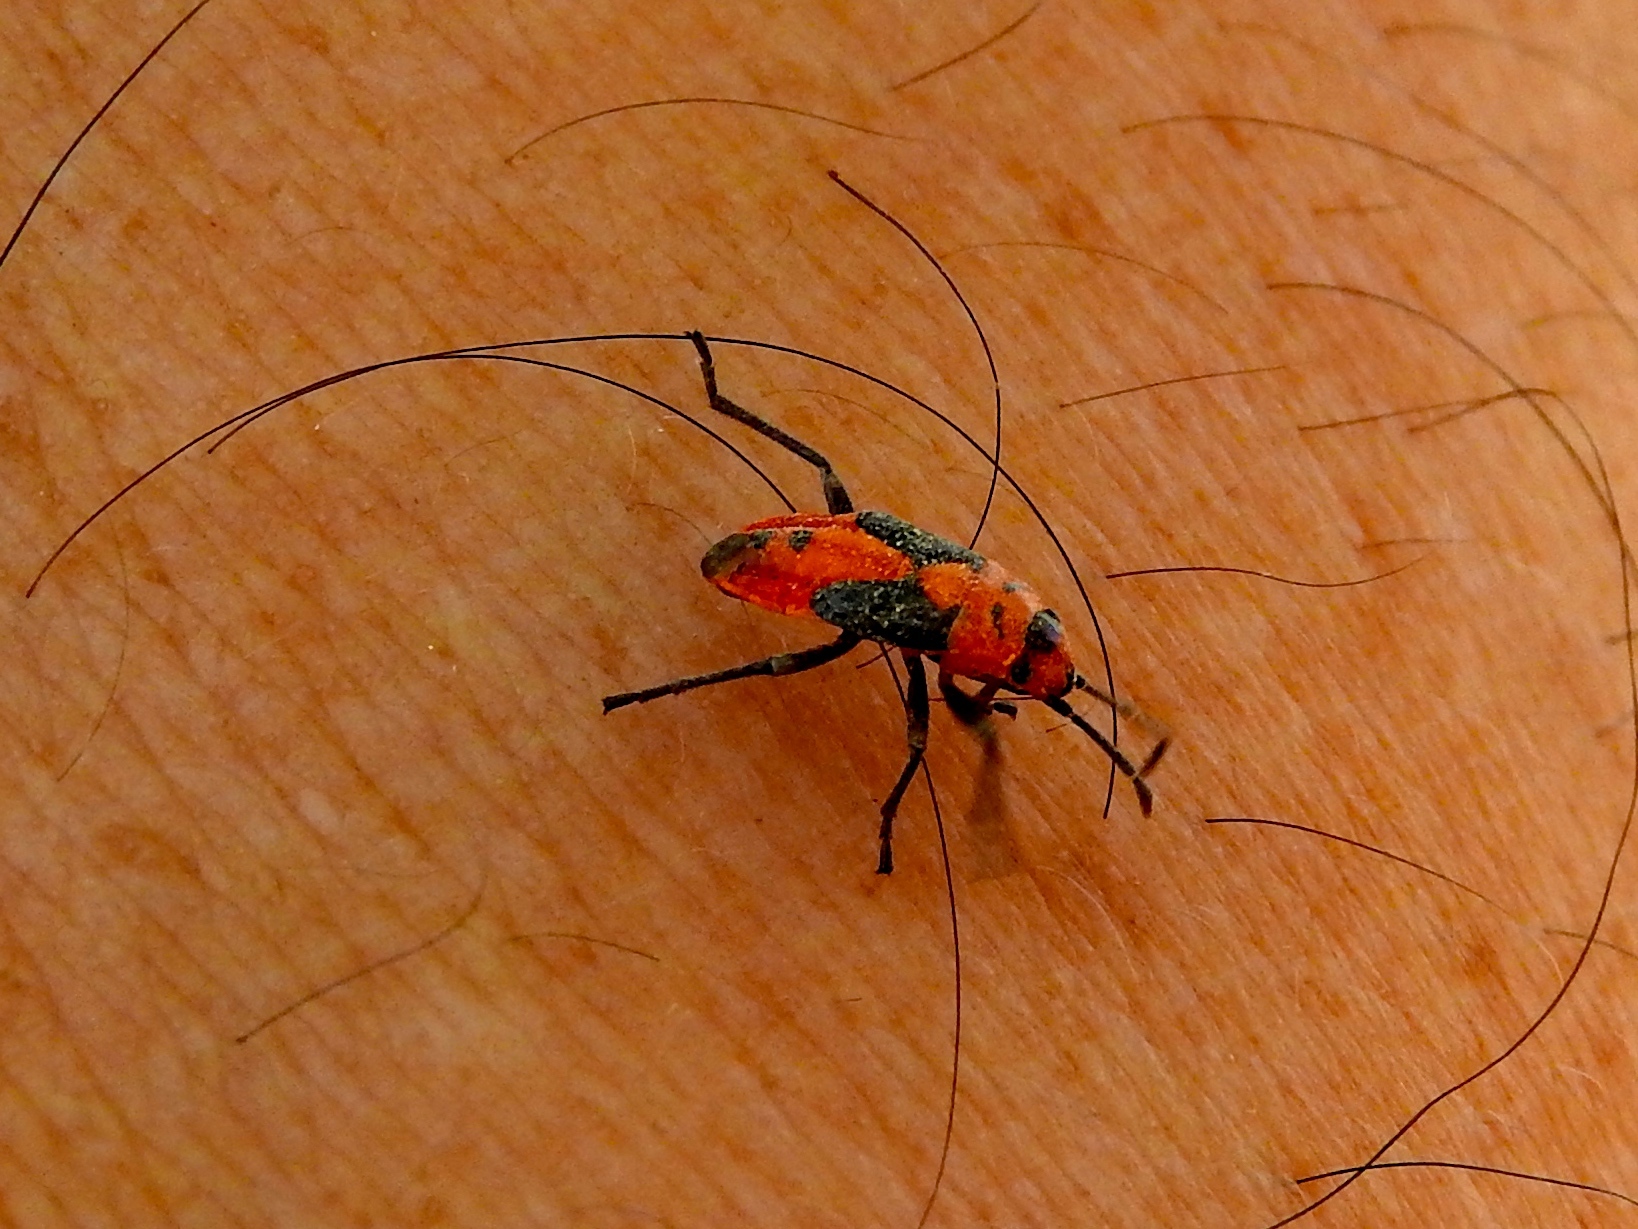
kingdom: Animalia
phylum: Arthropoda
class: Insecta
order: Hemiptera
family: Lygaeidae
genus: Lygaeus
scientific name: Lygaeus
